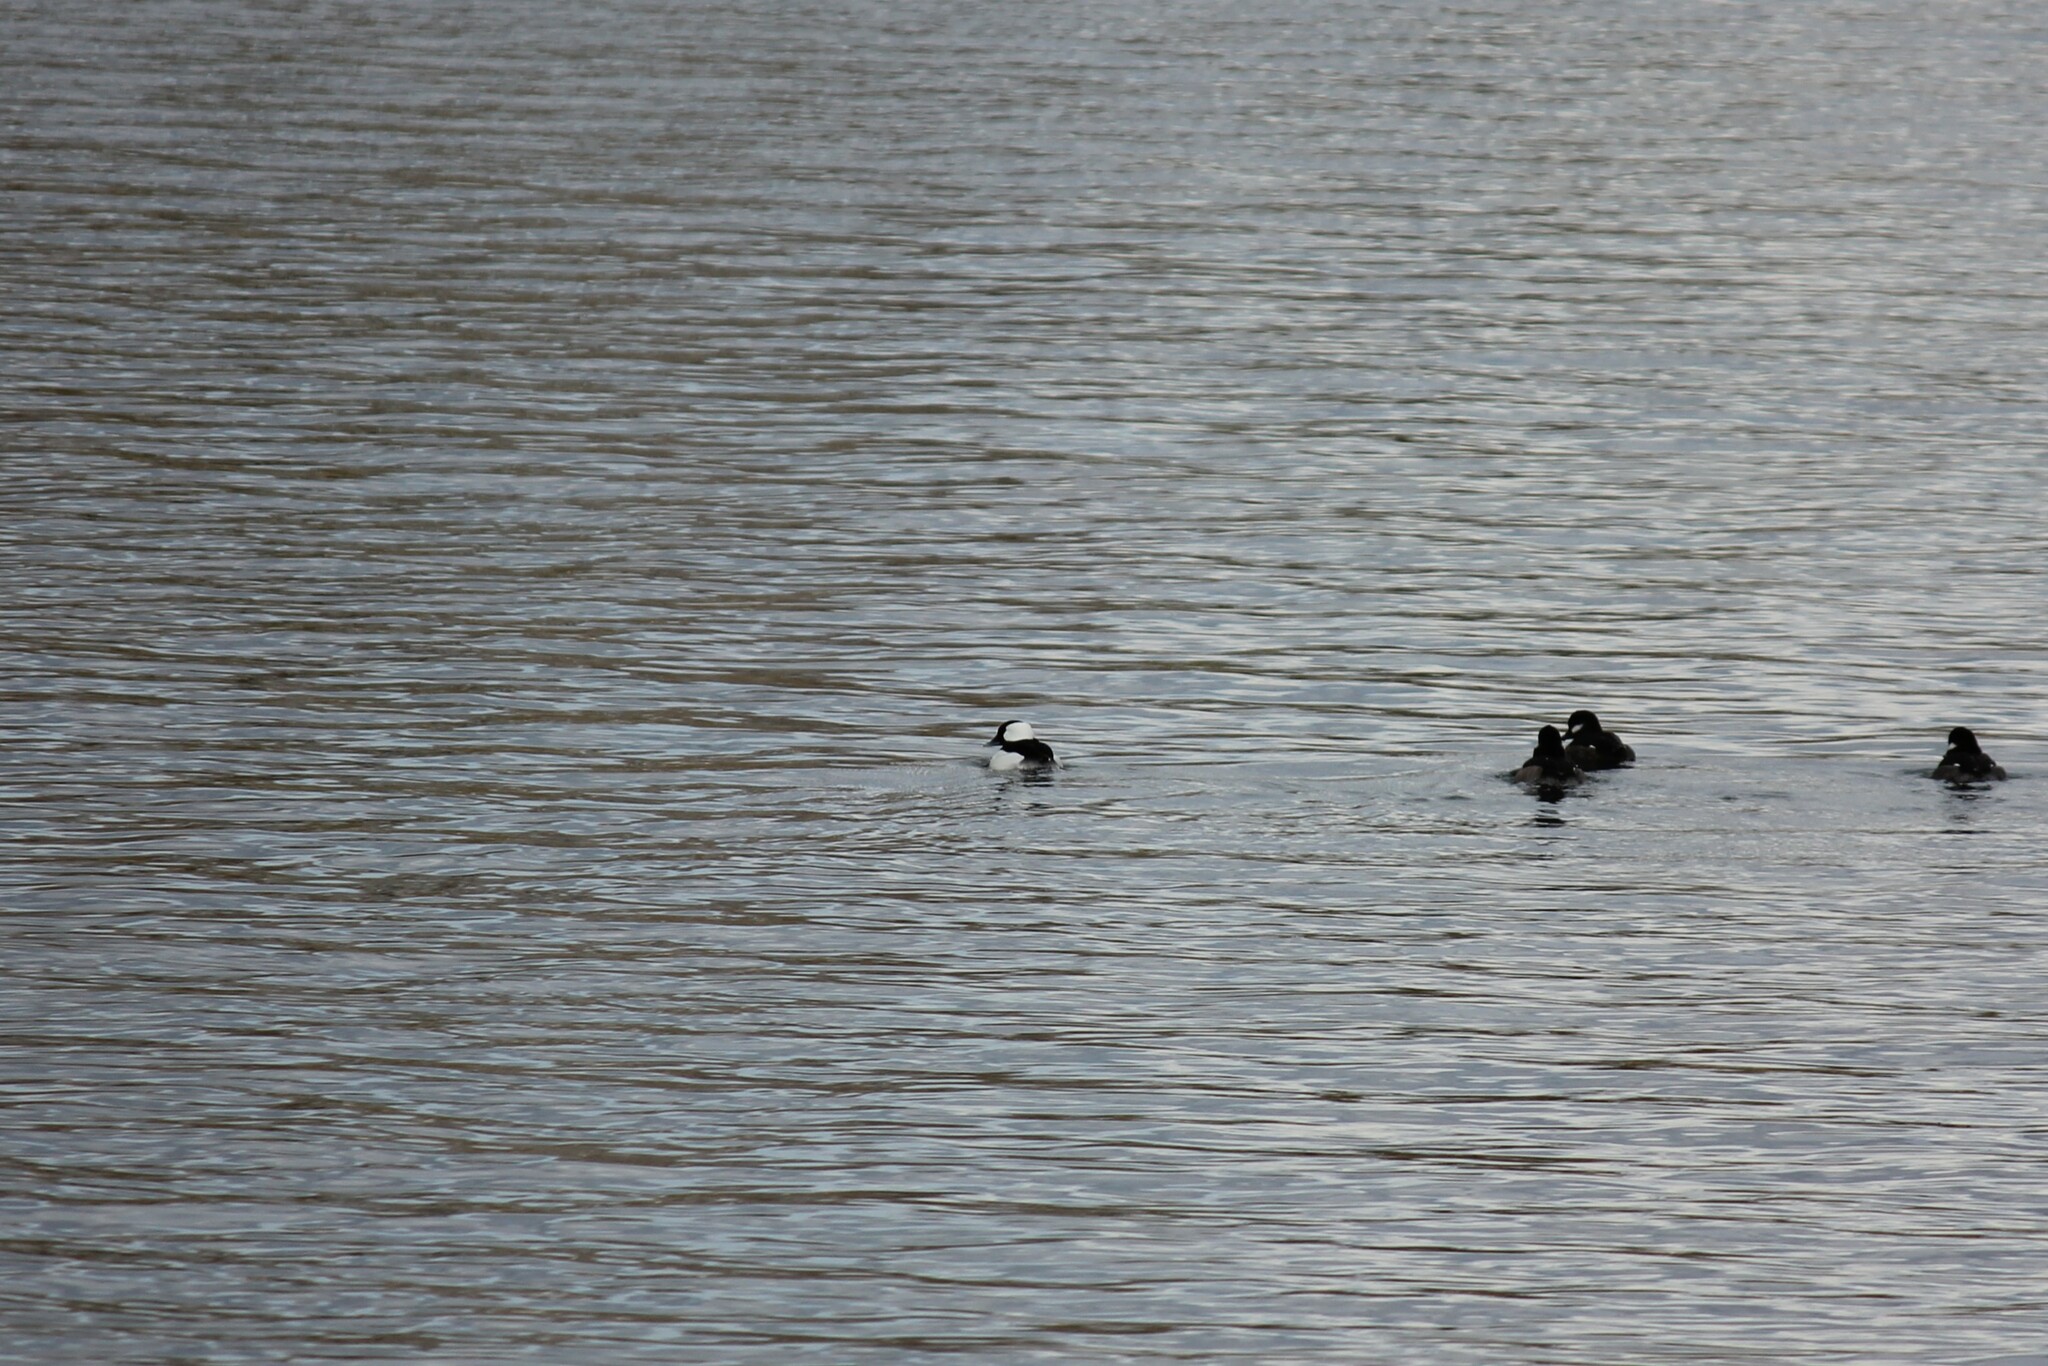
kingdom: Animalia
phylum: Chordata
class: Aves
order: Anseriformes
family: Anatidae
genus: Bucephala
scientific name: Bucephala albeola
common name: Bufflehead
